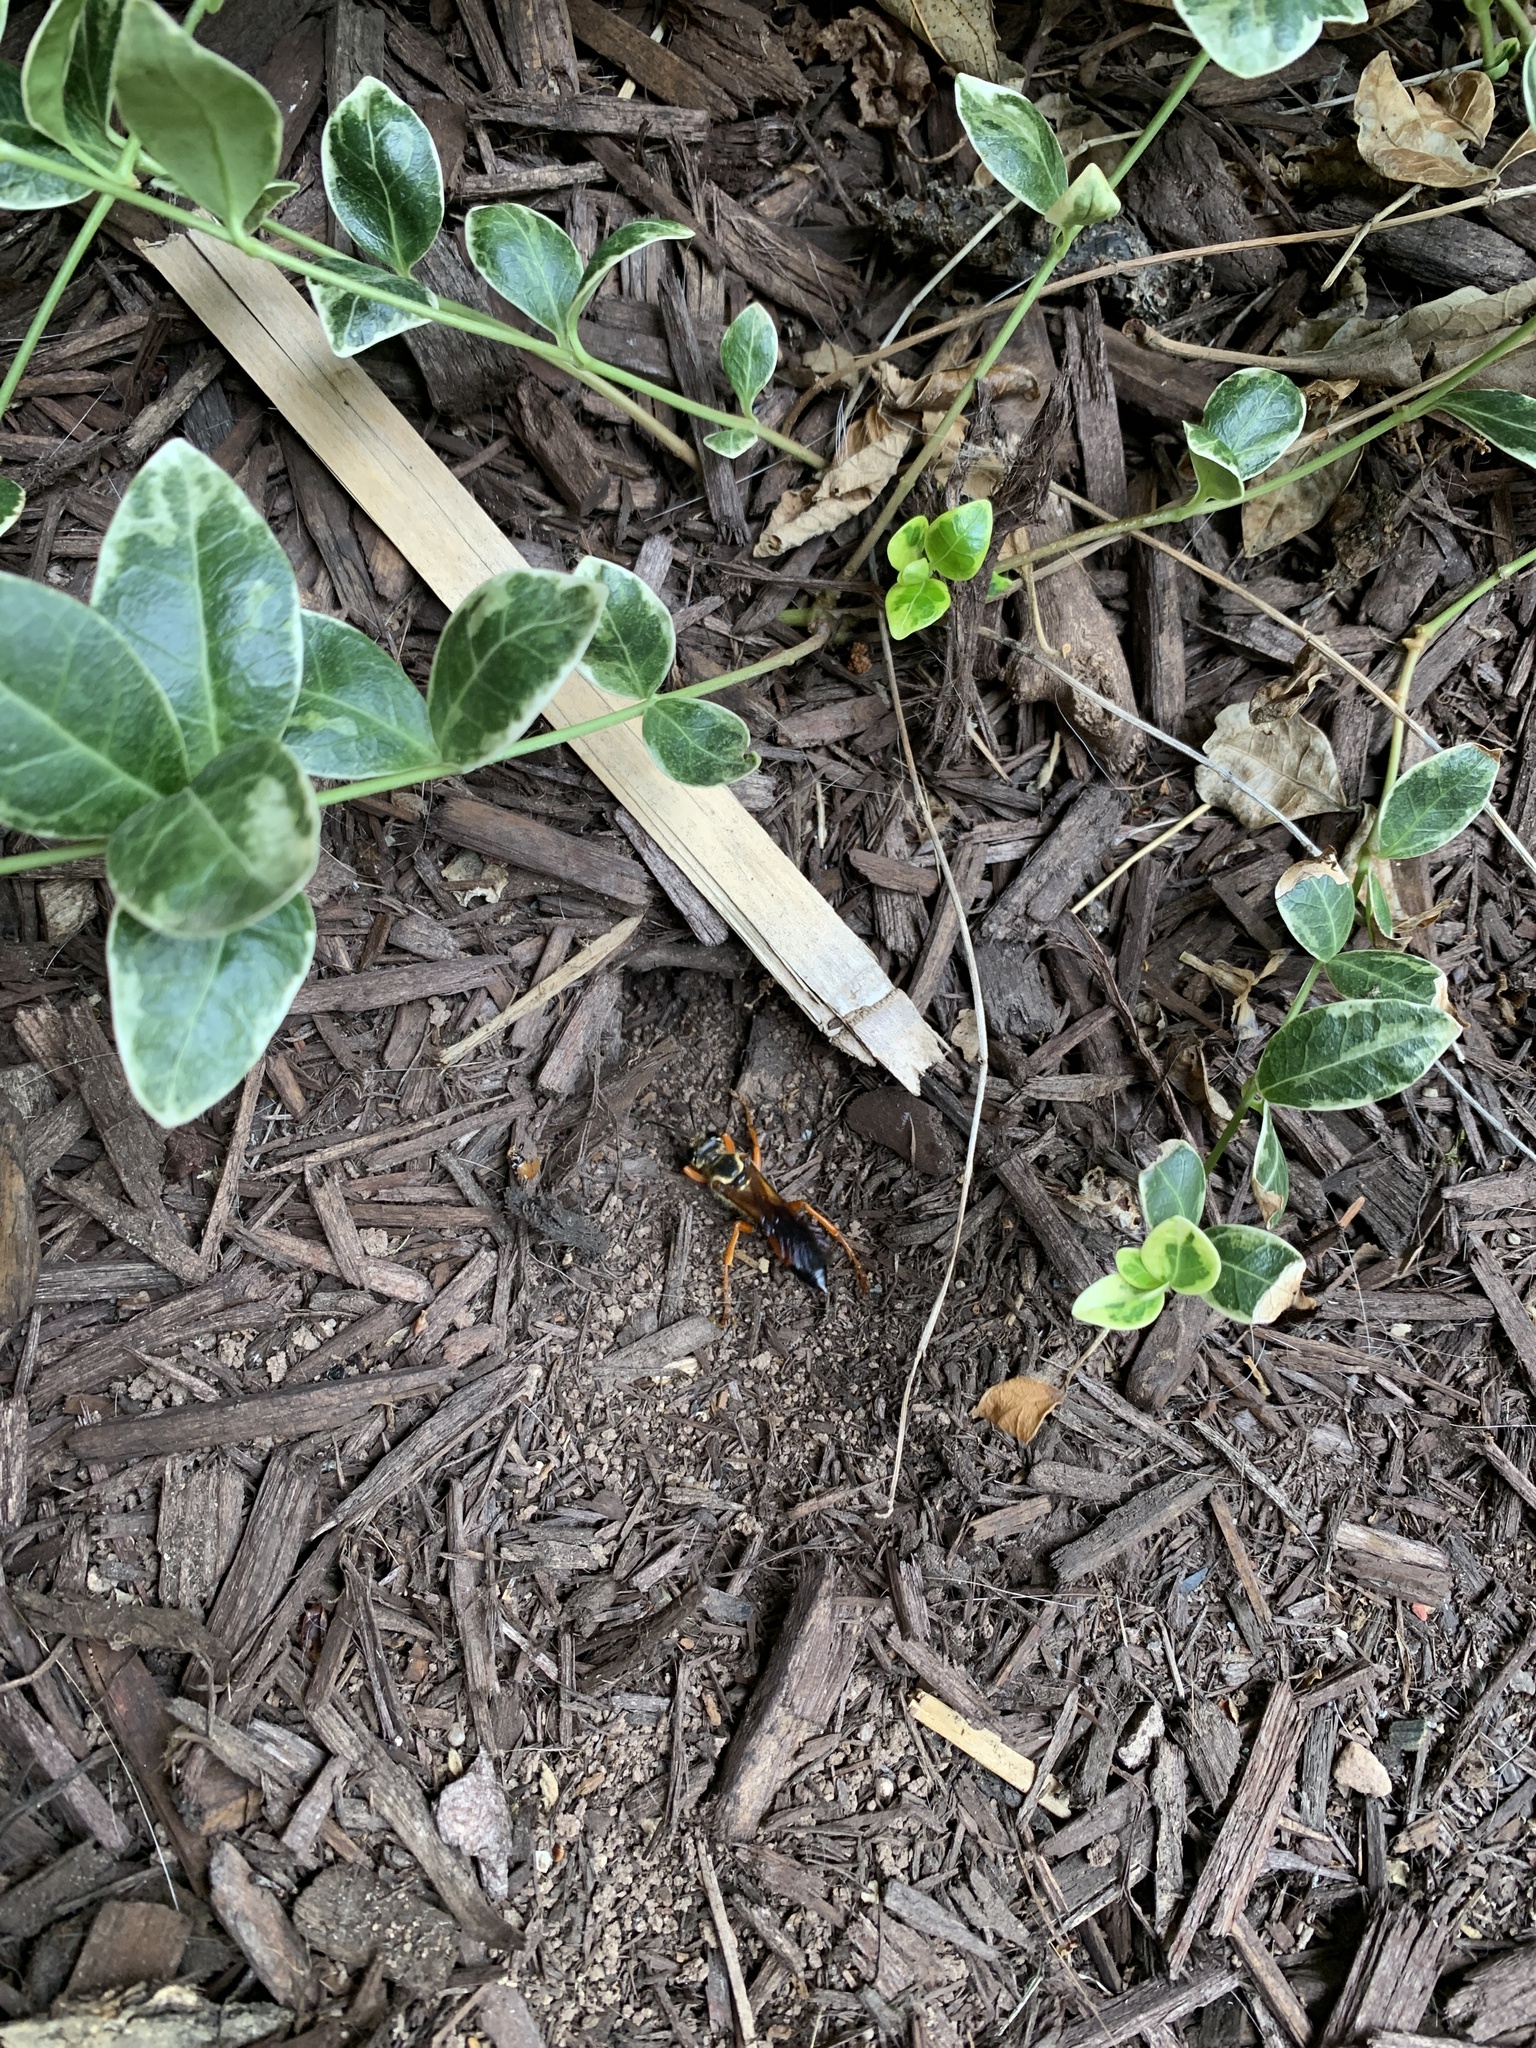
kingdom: Animalia
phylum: Arthropoda
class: Insecta
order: Hymenoptera
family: Sphecidae
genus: Sphex
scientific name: Sphex ichneumoneus
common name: Great golden digger wasp
